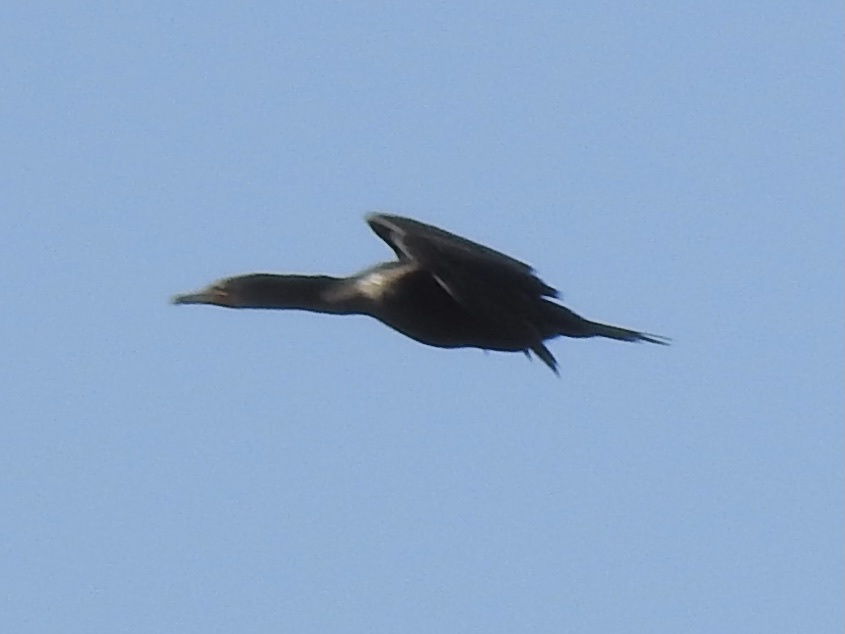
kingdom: Animalia
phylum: Chordata
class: Aves
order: Suliformes
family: Phalacrocoracidae
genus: Phalacrocorax
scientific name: Phalacrocorax auritus
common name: Double-crested cormorant
